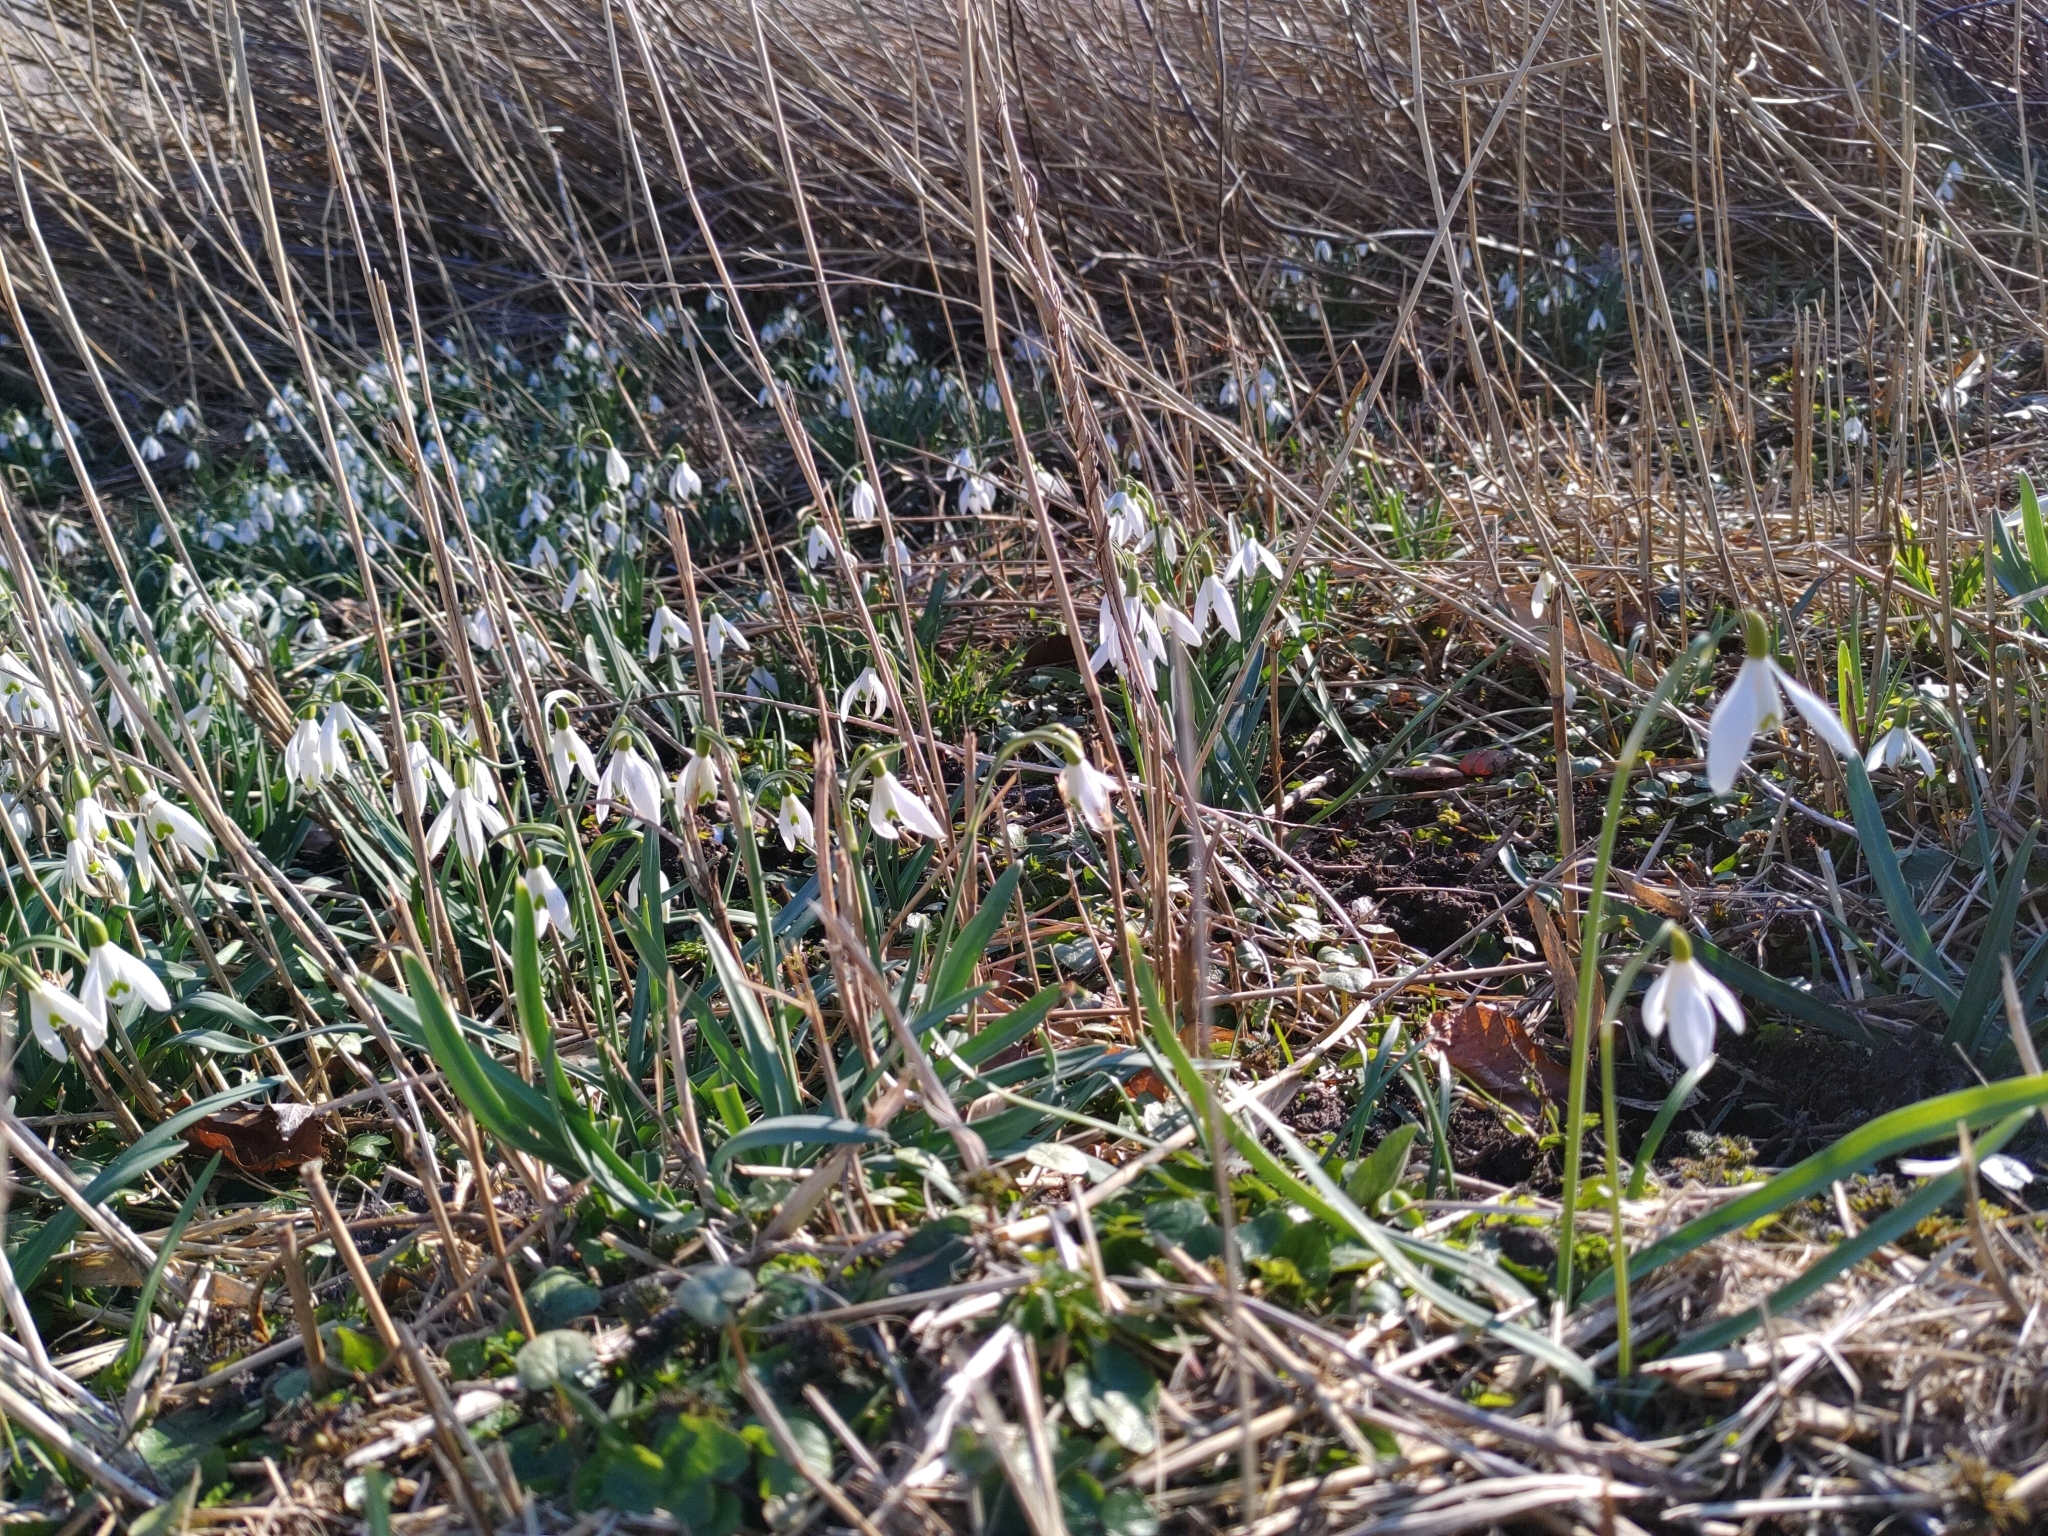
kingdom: Plantae
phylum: Tracheophyta
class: Liliopsida
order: Asparagales
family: Amaryllidaceae
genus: Galanthus
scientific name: Galanthus nivalis
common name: Snowdrop
